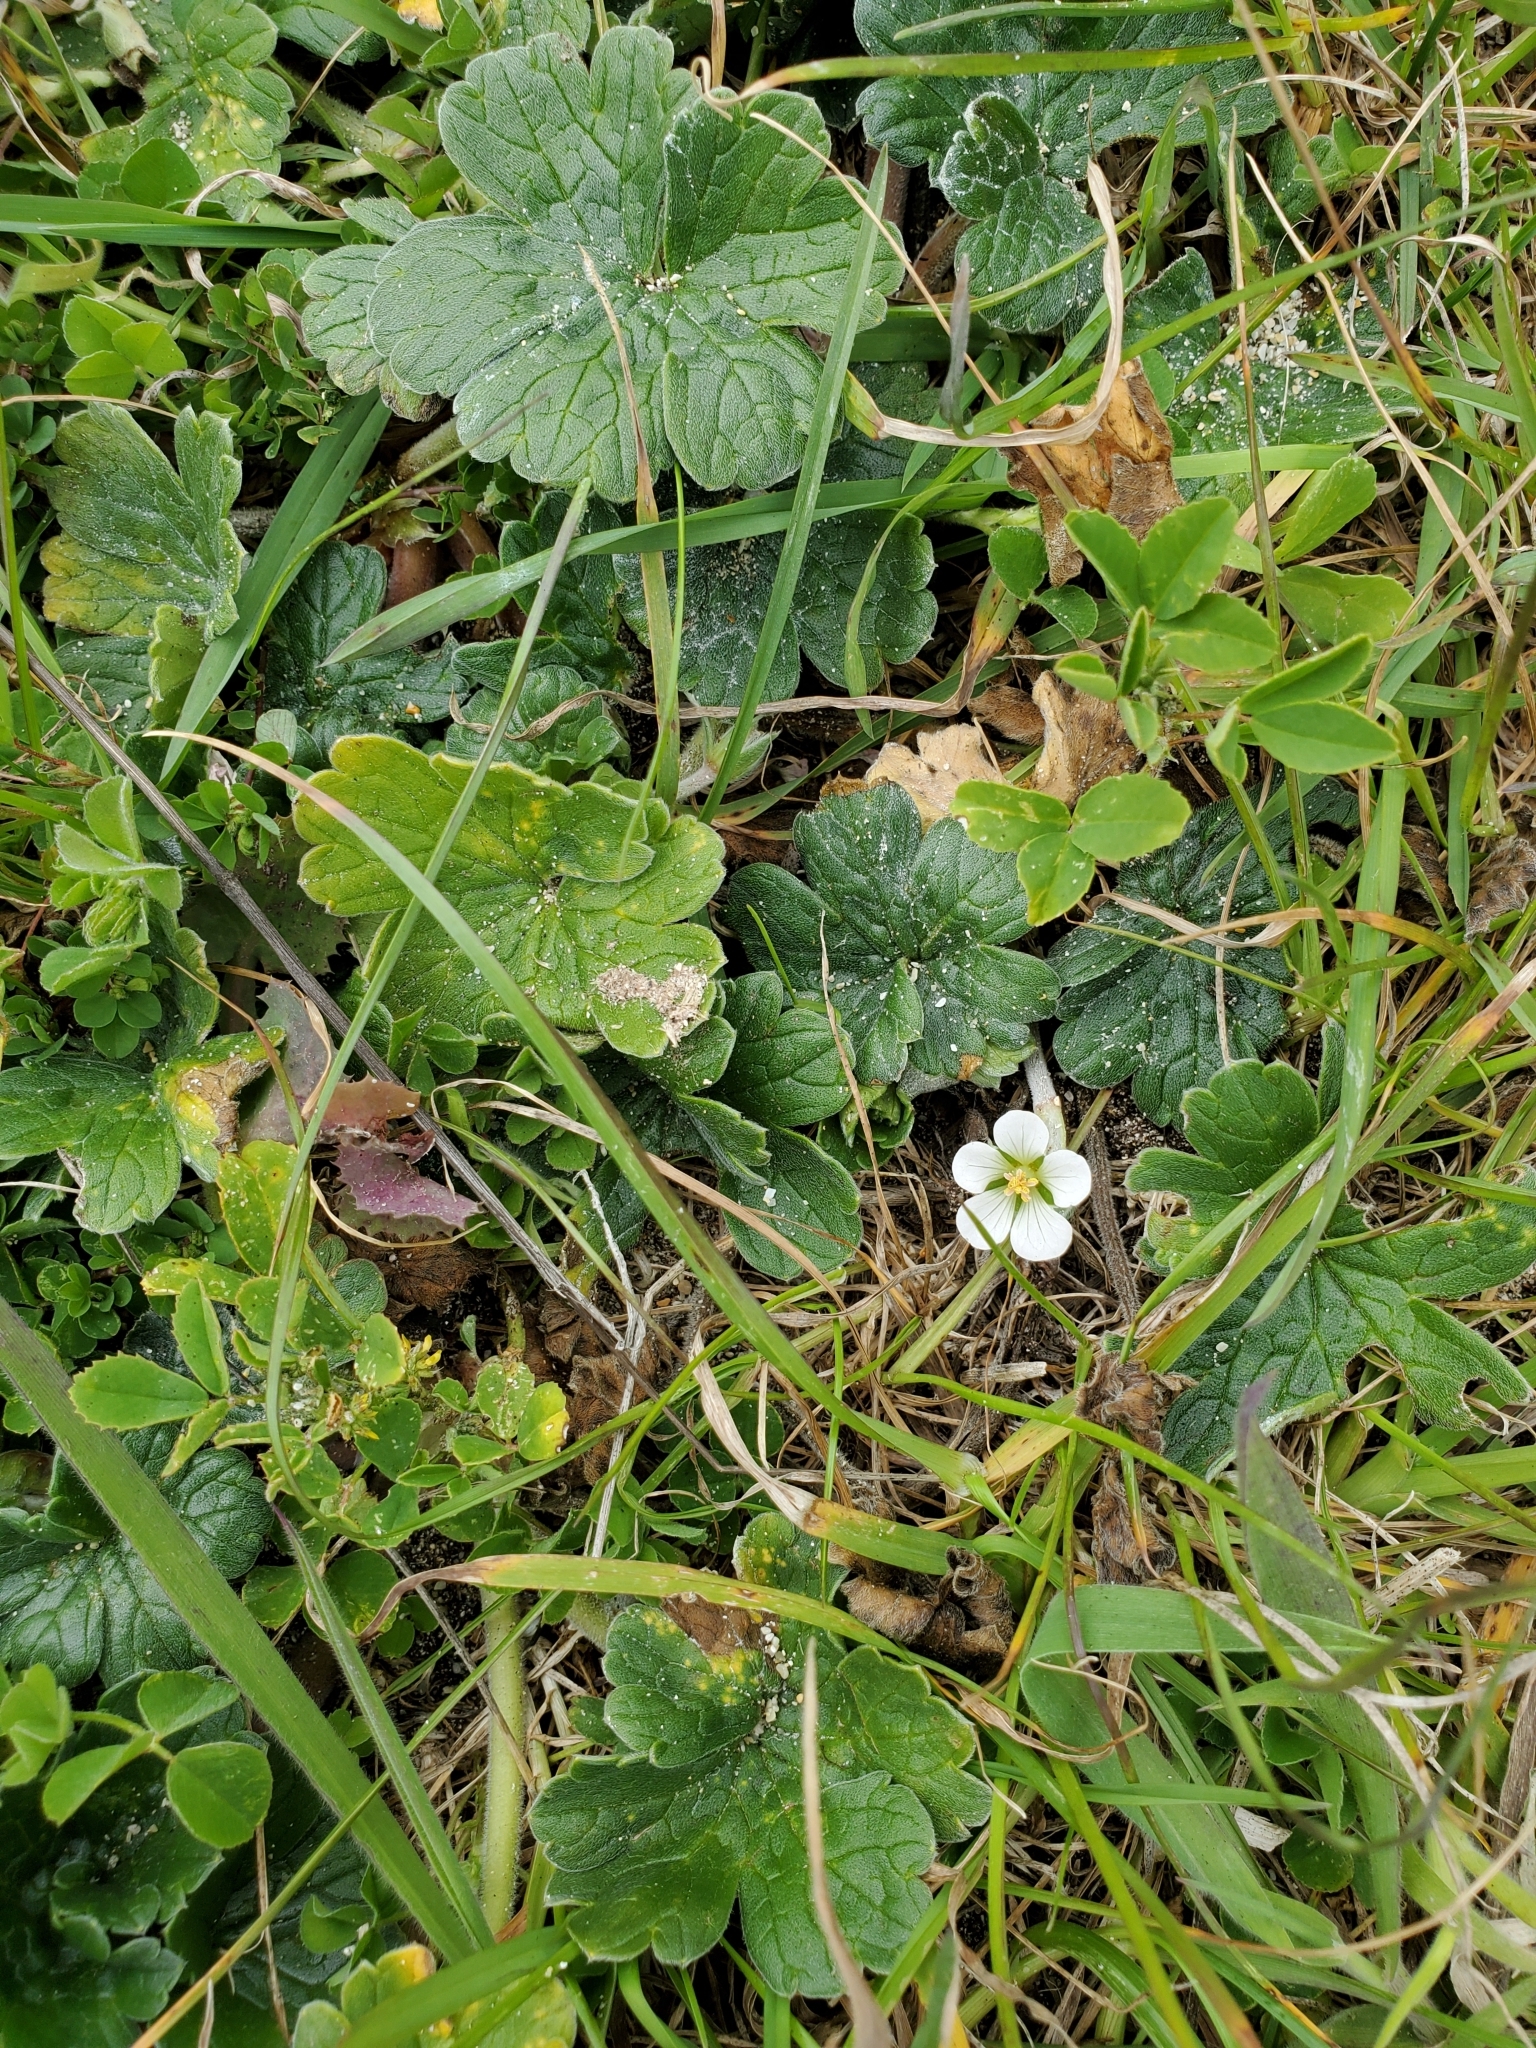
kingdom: Plantae
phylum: Tracheophyta
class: Magnoliopsida
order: Geraniales
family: Geraniaceae
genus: Geranium
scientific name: Geranium traversii
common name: Cranesbill
